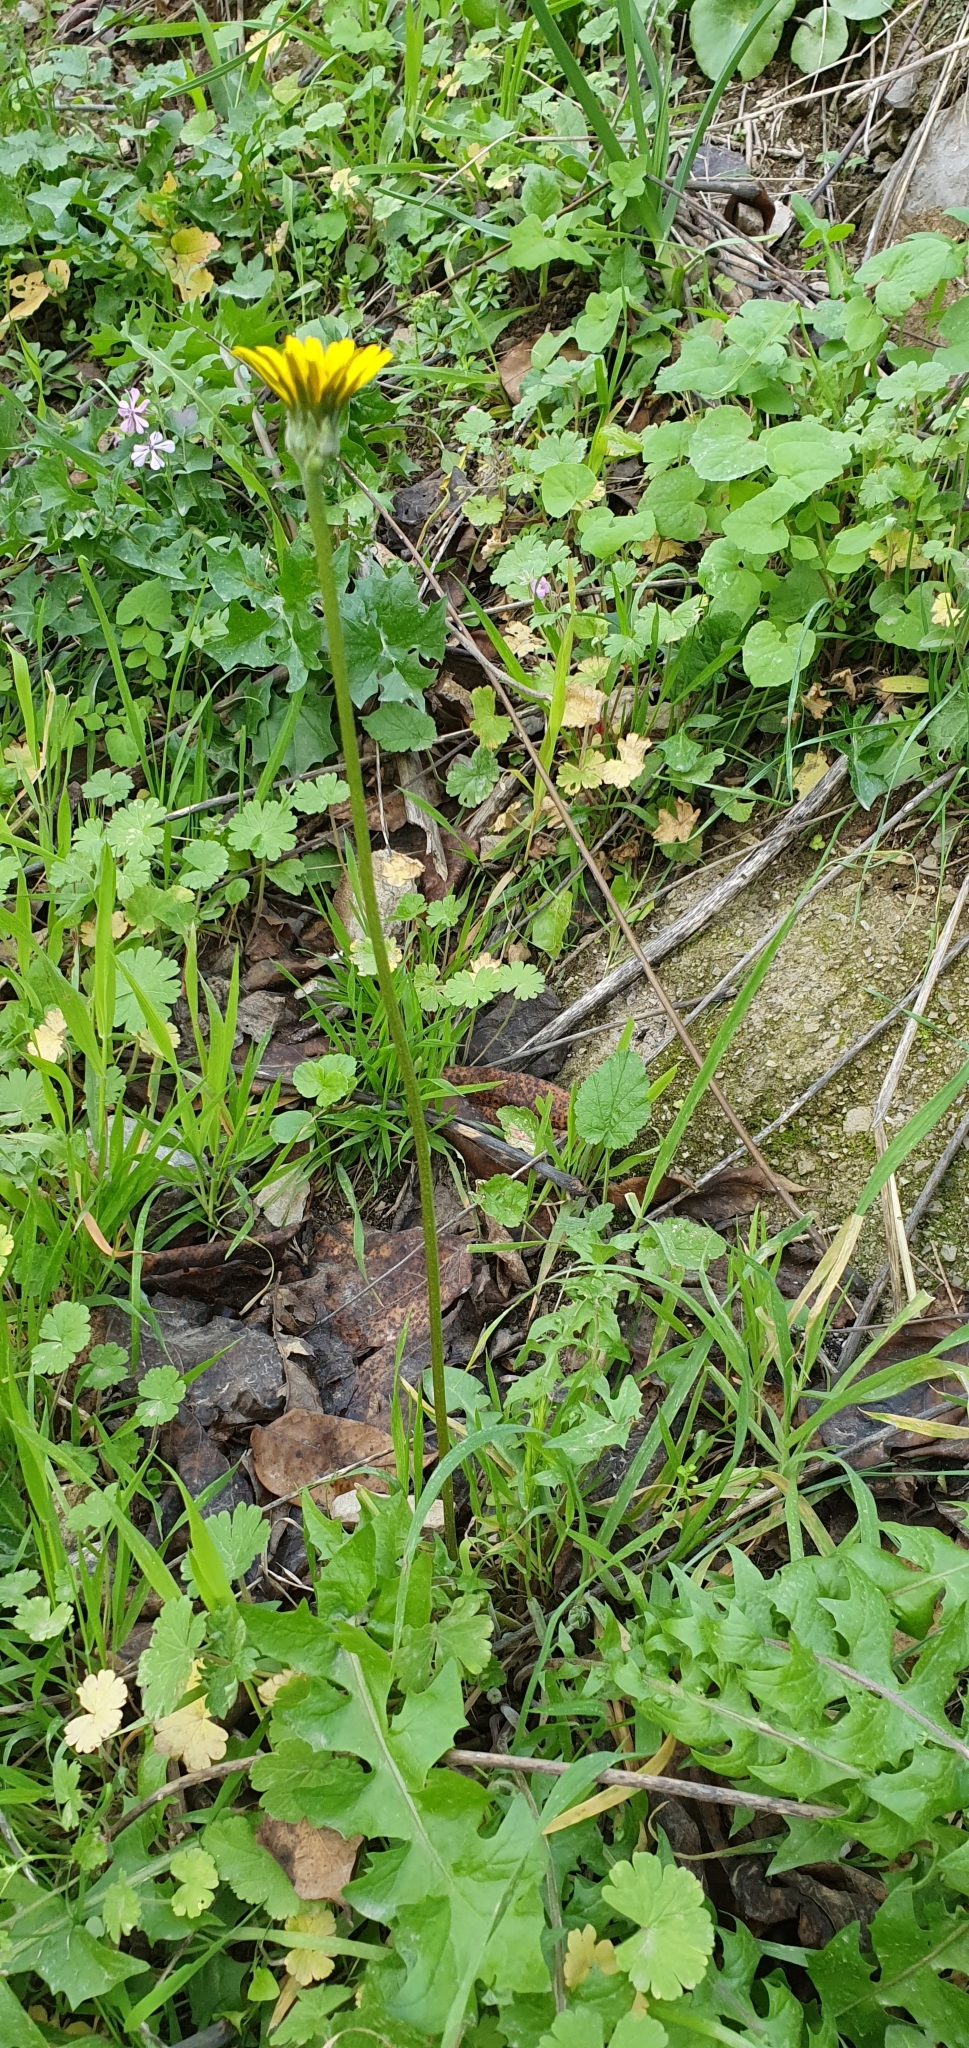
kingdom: Plantae
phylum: Tracheophyta
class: Magnoliopsida
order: Asterales
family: Asteraceae
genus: Hyoseris
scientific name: Hyoseris radiata
